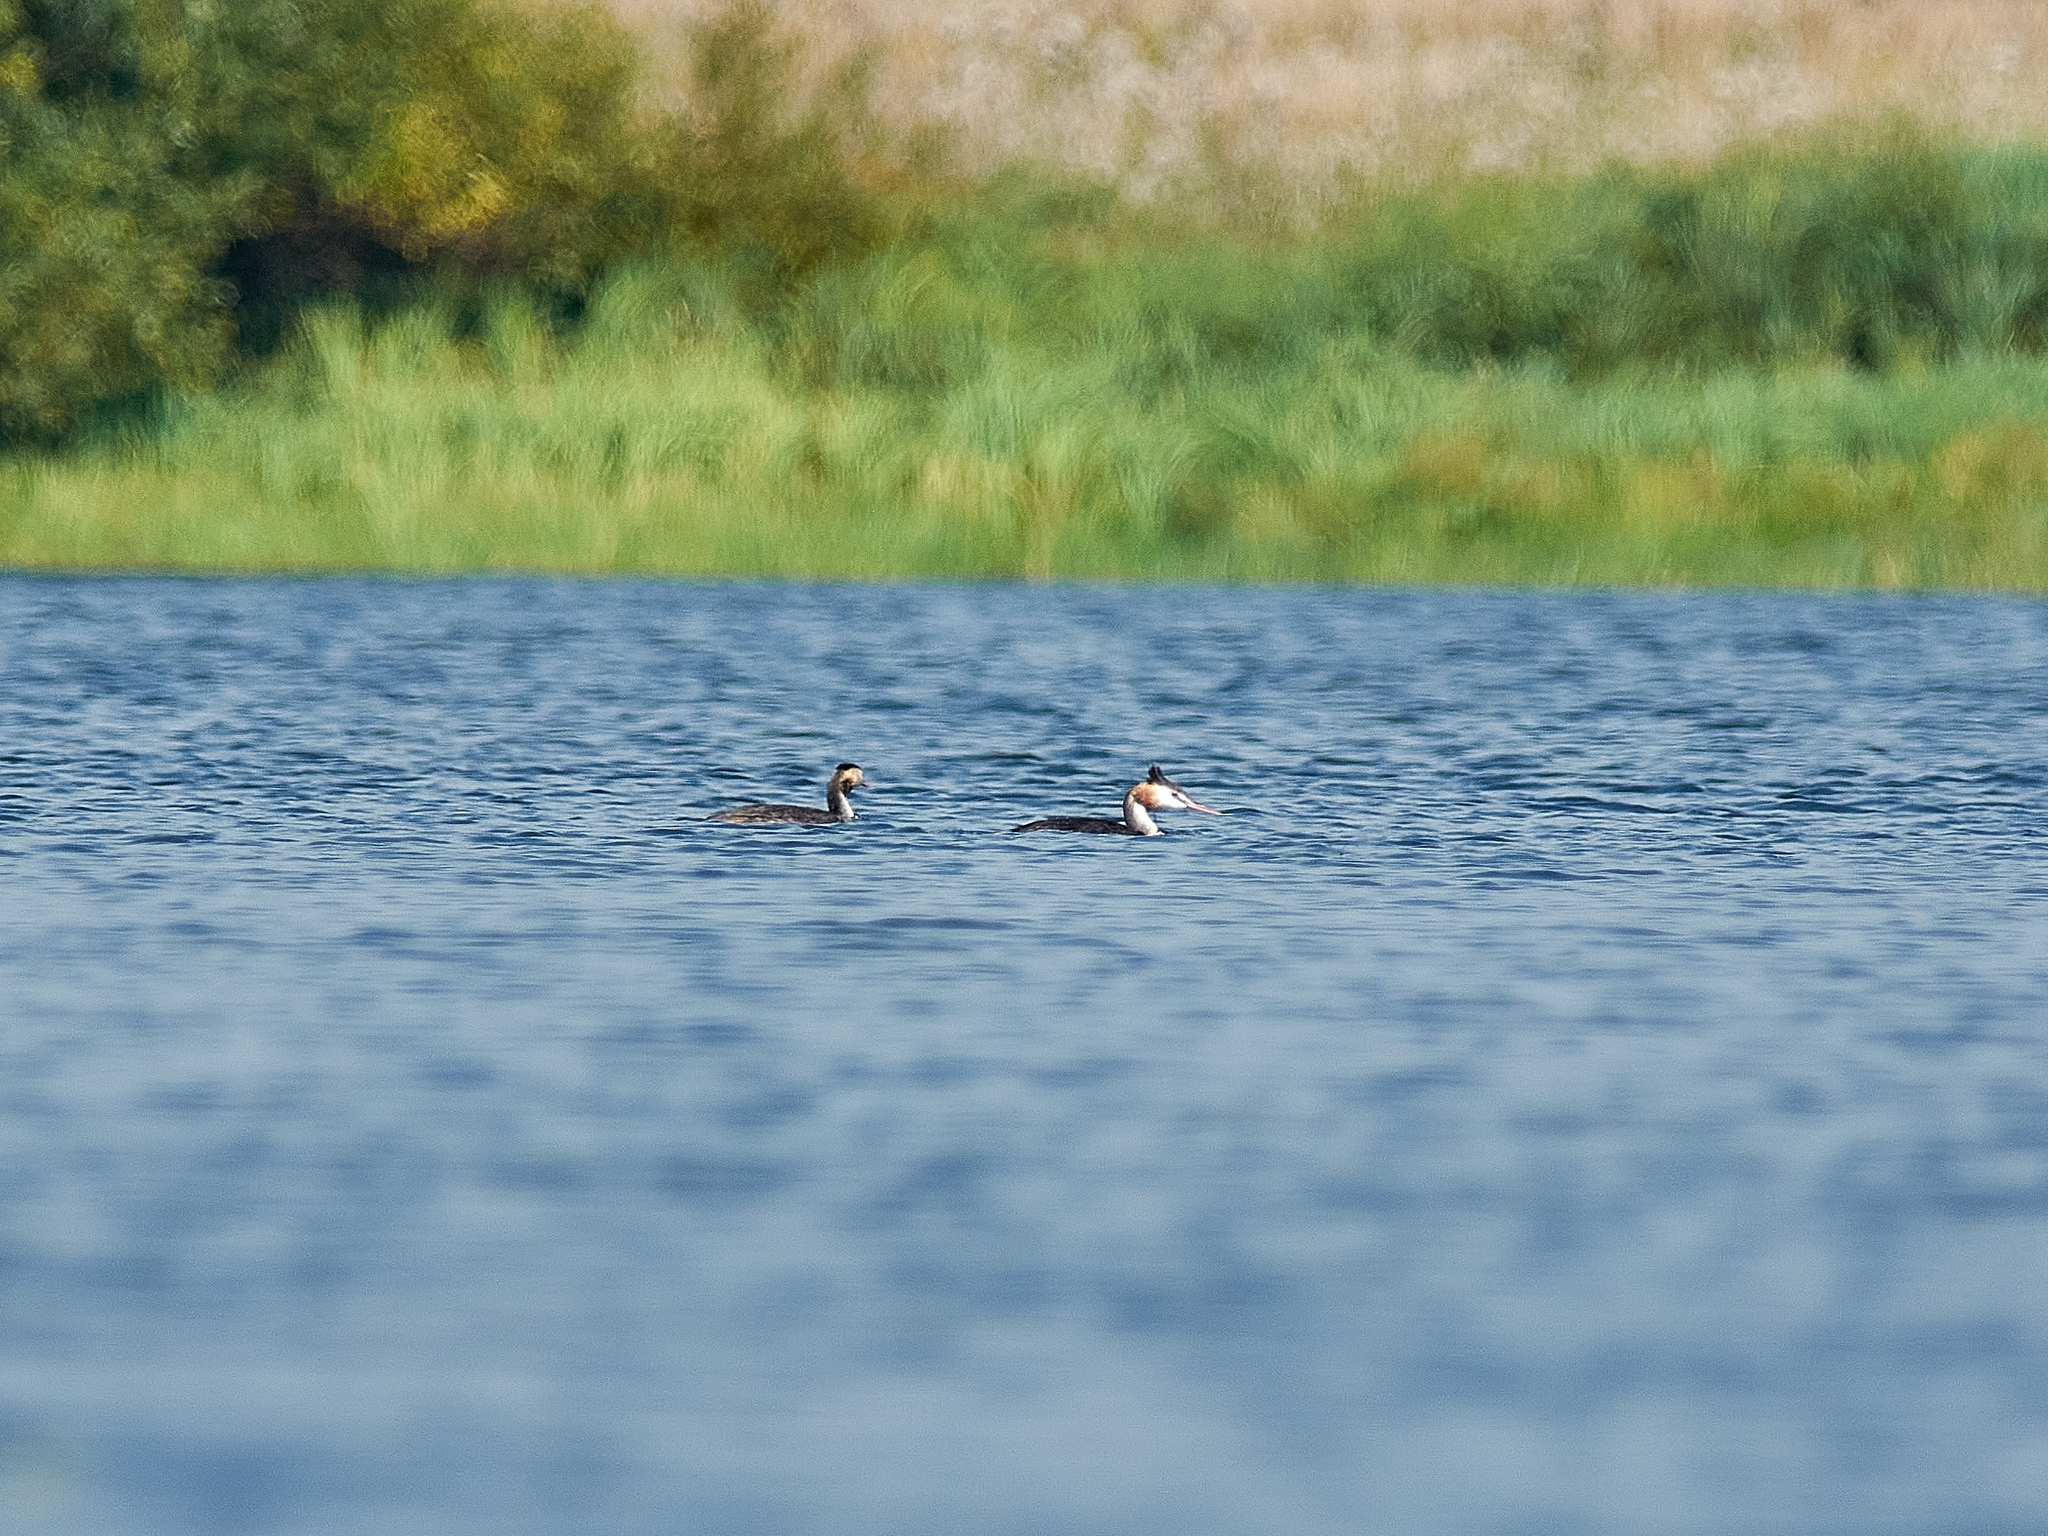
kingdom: Animalia
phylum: Chordata
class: Aves
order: Podicipediformes
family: Podicipedidae
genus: Podiceps
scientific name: Podiceps cristatus
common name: Great crested grebe
